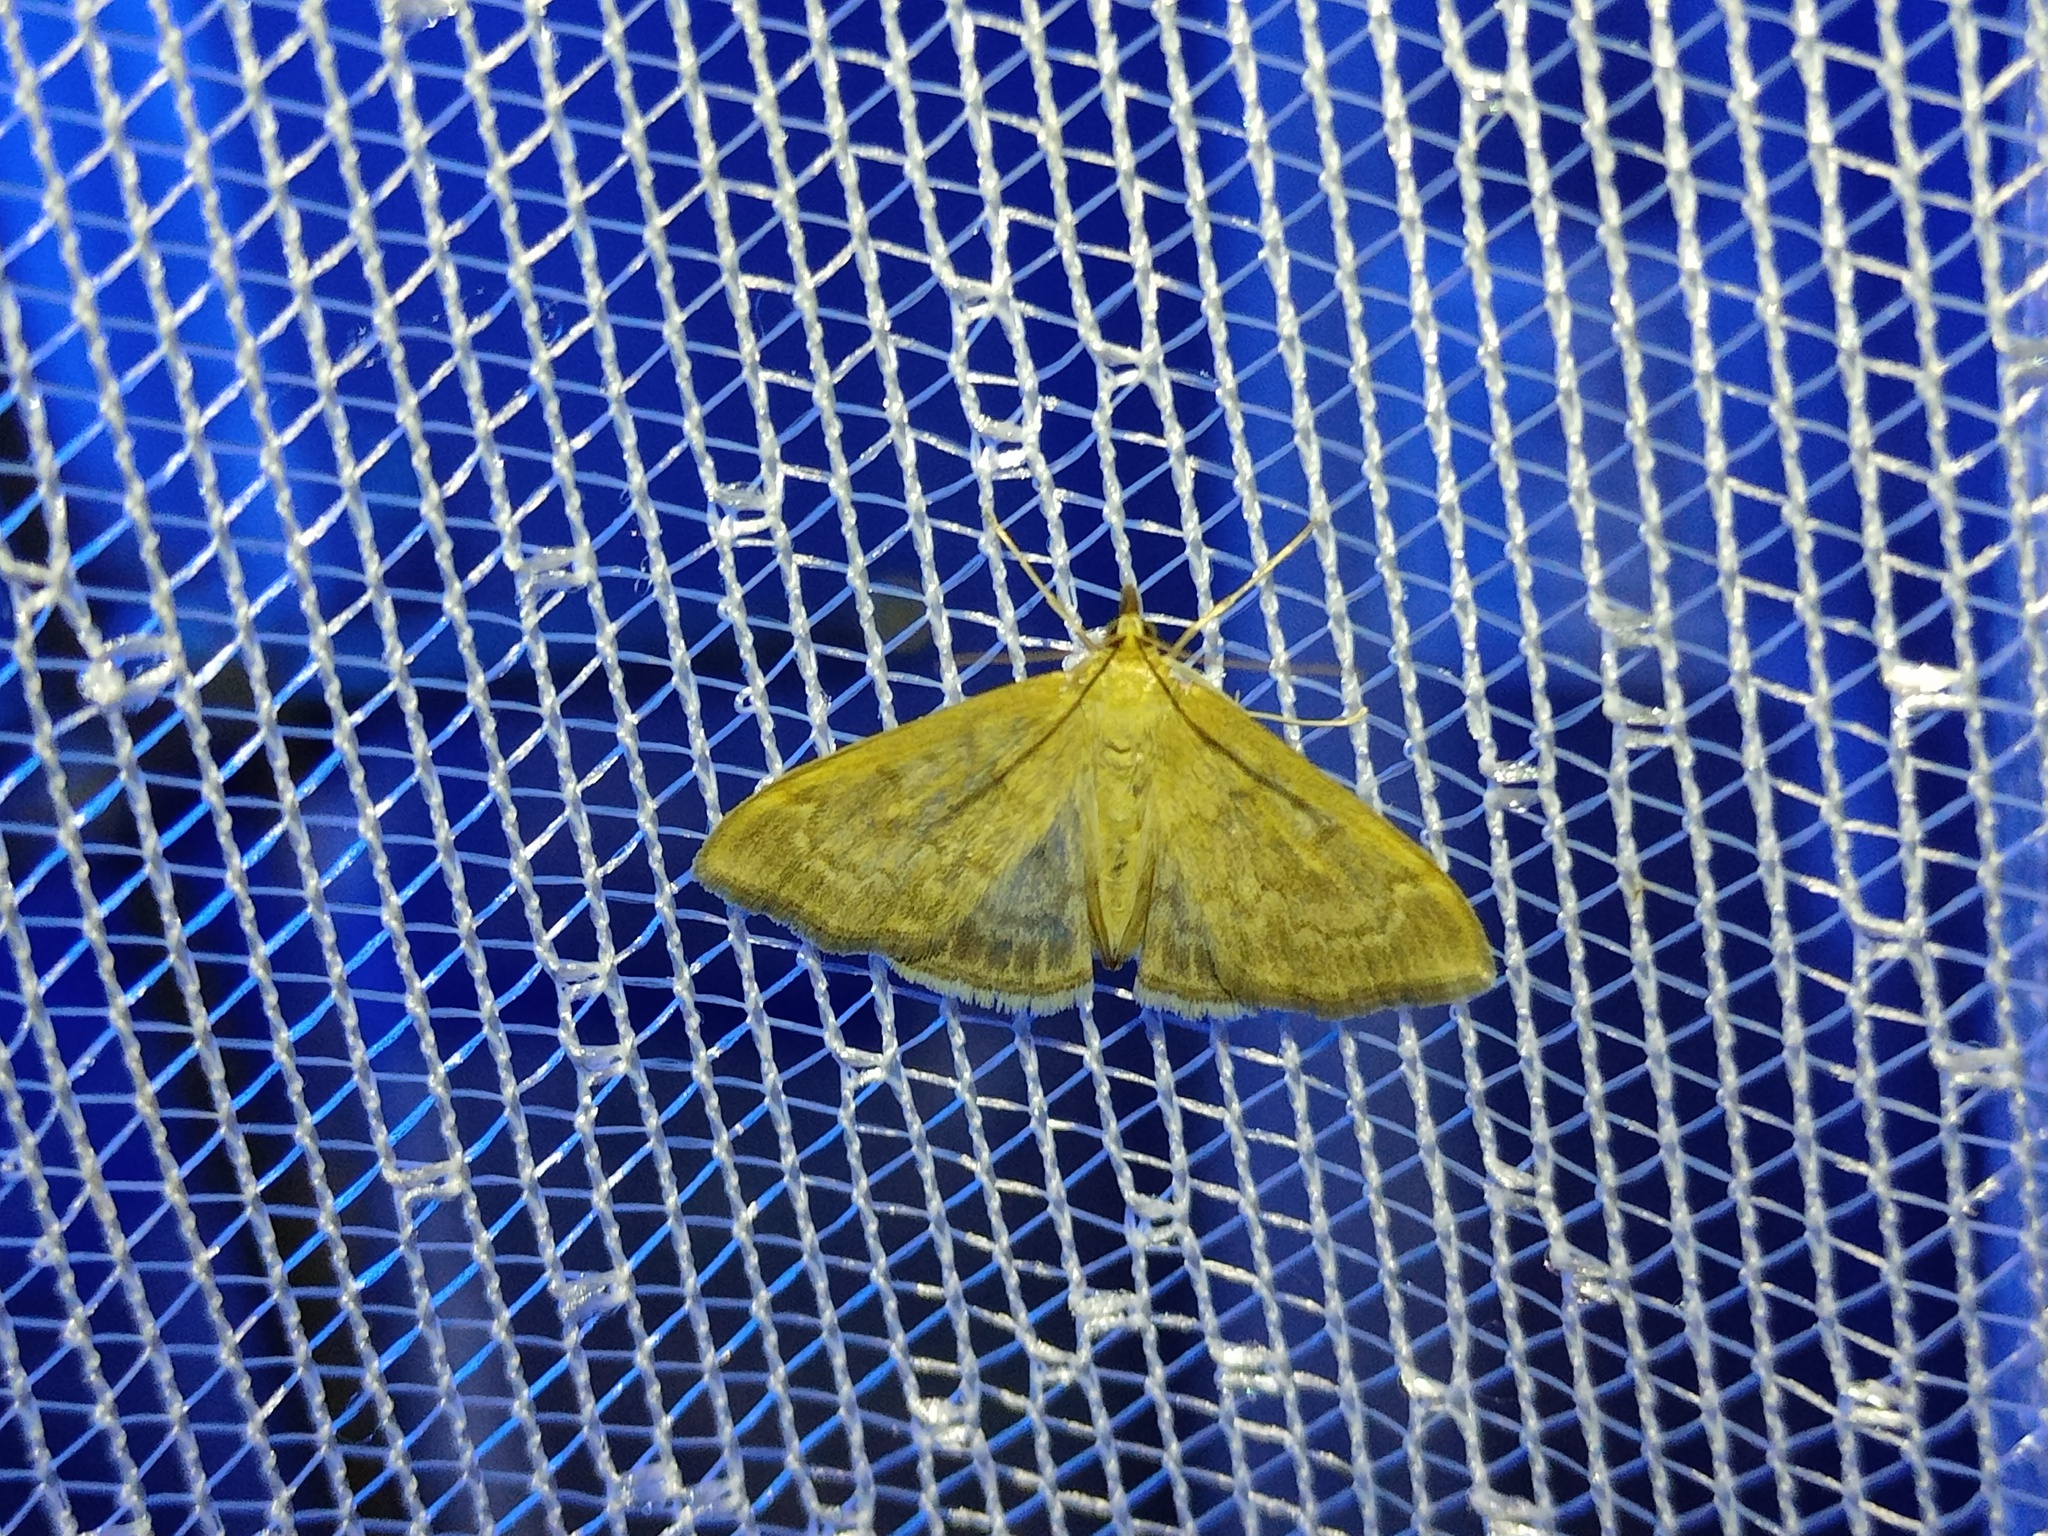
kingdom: Animalia
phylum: Arthropoda
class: Insecta
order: Lepidoptera
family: Crambidae
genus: Anania
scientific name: Anania fuscalis
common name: Cinerous pearl
